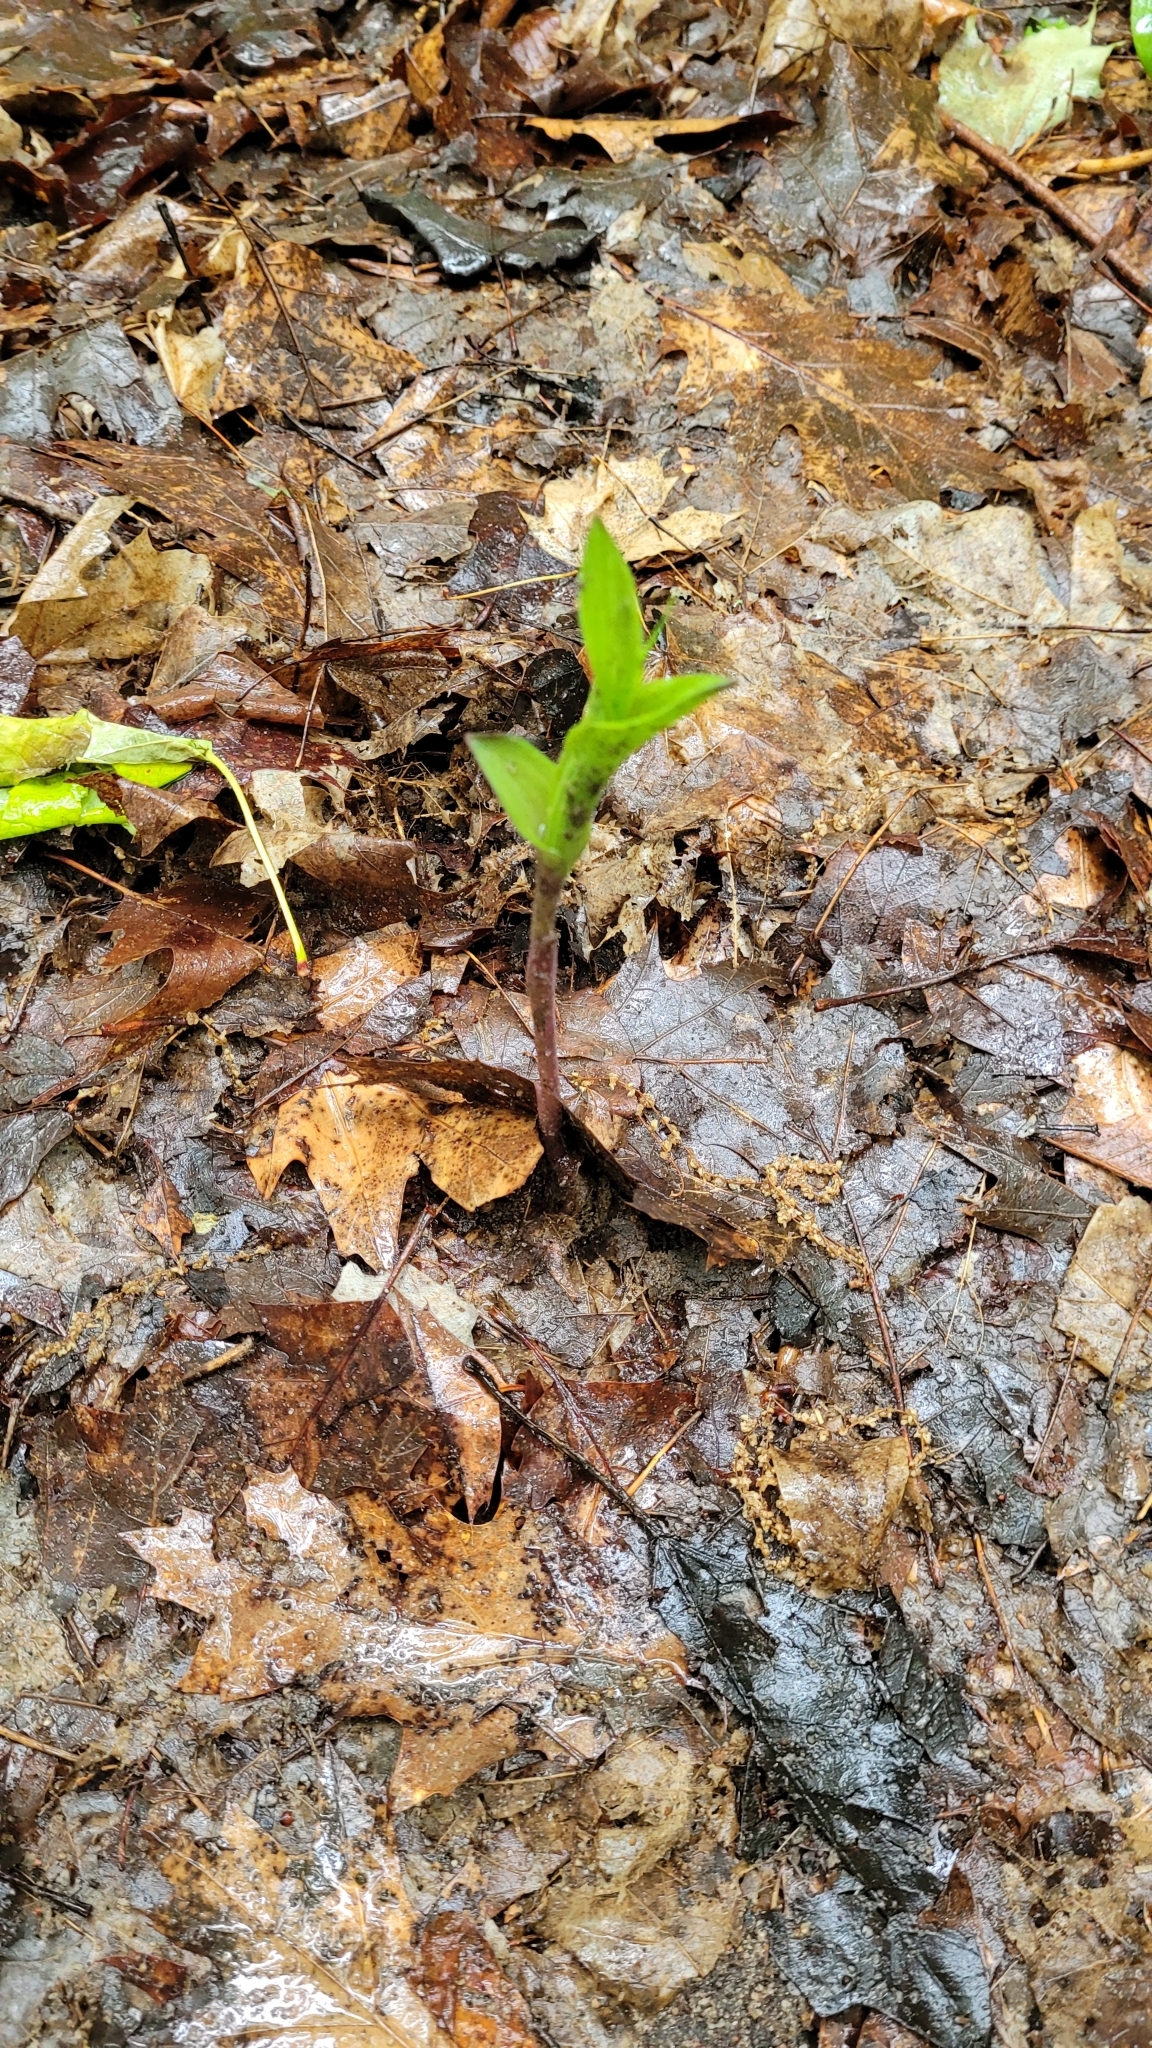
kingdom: Plantae
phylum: Tracheophyta
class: Liliopsida
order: Asparagales
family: Orchidaceae
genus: Epipactis
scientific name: Epipactis helleborine
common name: Broad-leaved helleborine
